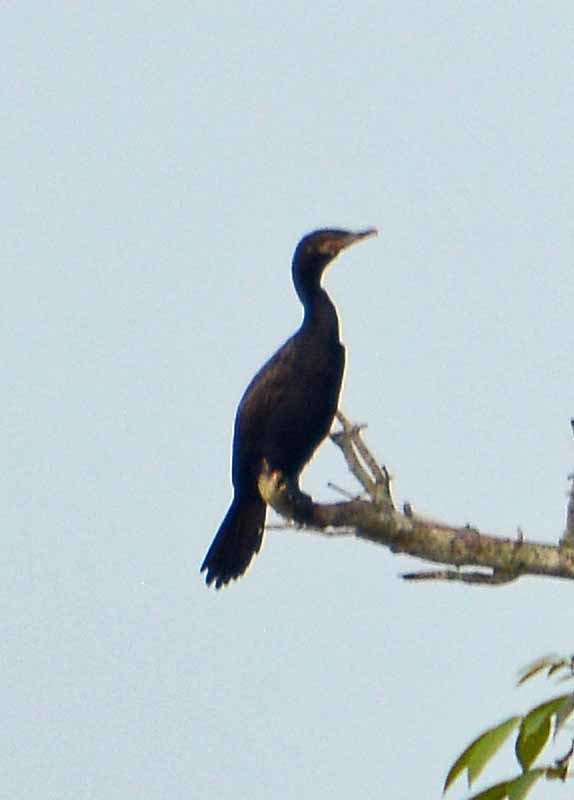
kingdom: Animalia
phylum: Chordata
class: Aves
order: Suliformes
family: Phalacrocoracidae
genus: Phalacrocorax
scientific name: Phalacrocorax brasilianus
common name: Neotropic cormorant
